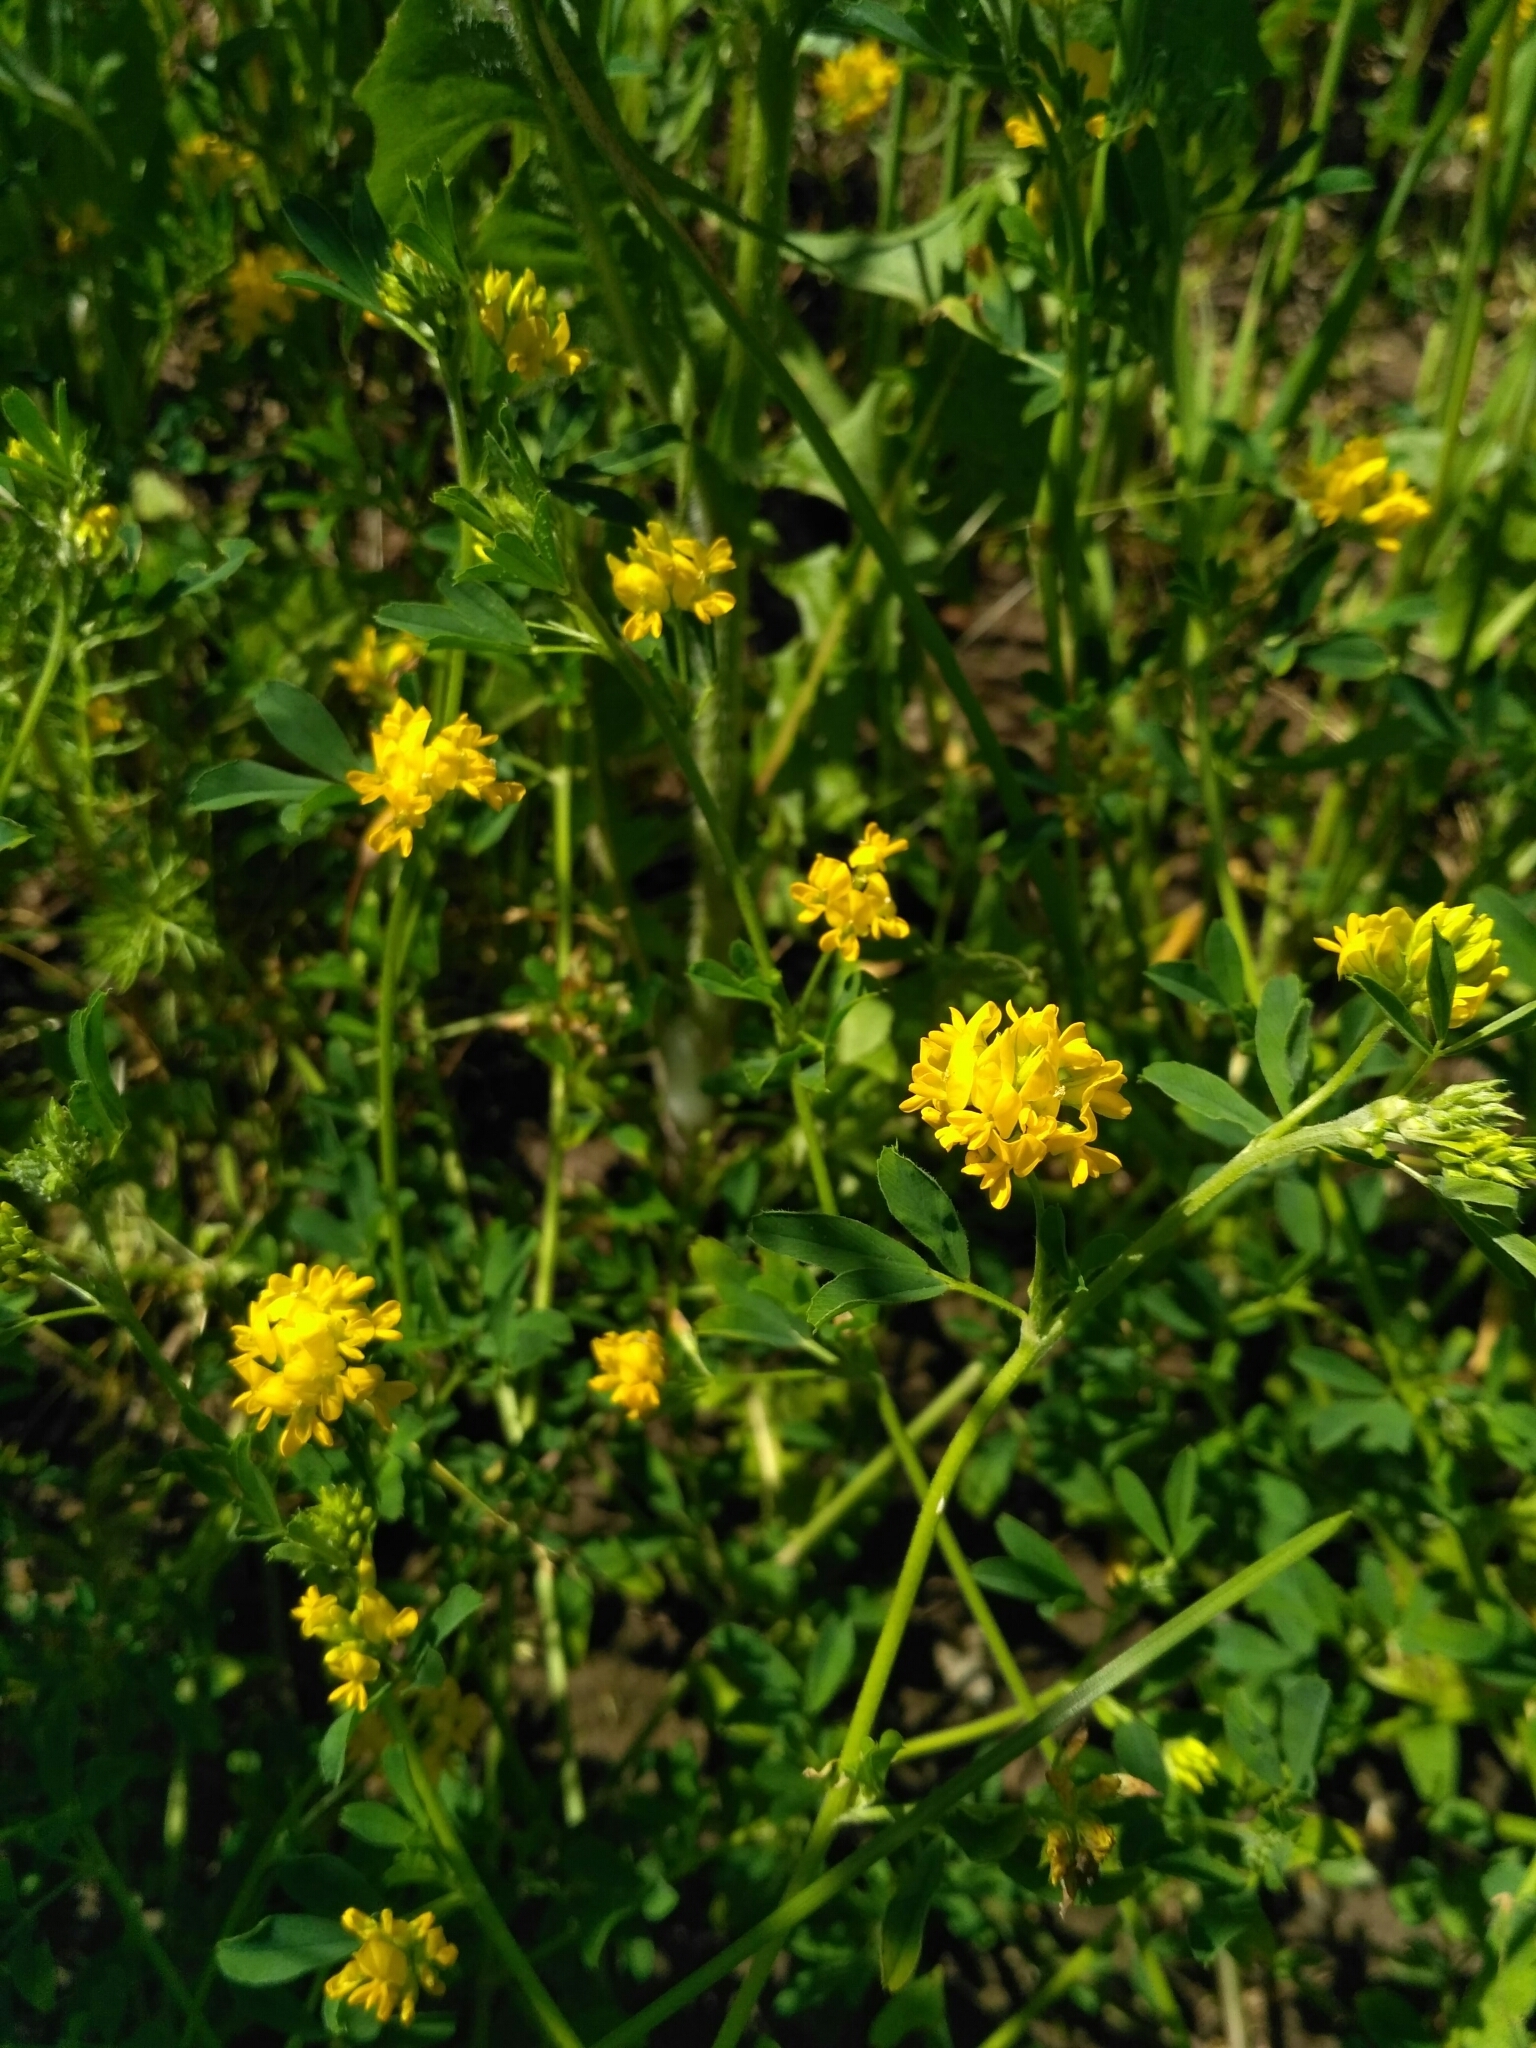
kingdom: Plantae
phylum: Tracheophyta
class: Magnoliopsida
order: Fabales
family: Fabaceae
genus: Medicago
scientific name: Medicago falcata
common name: Sickle medick
